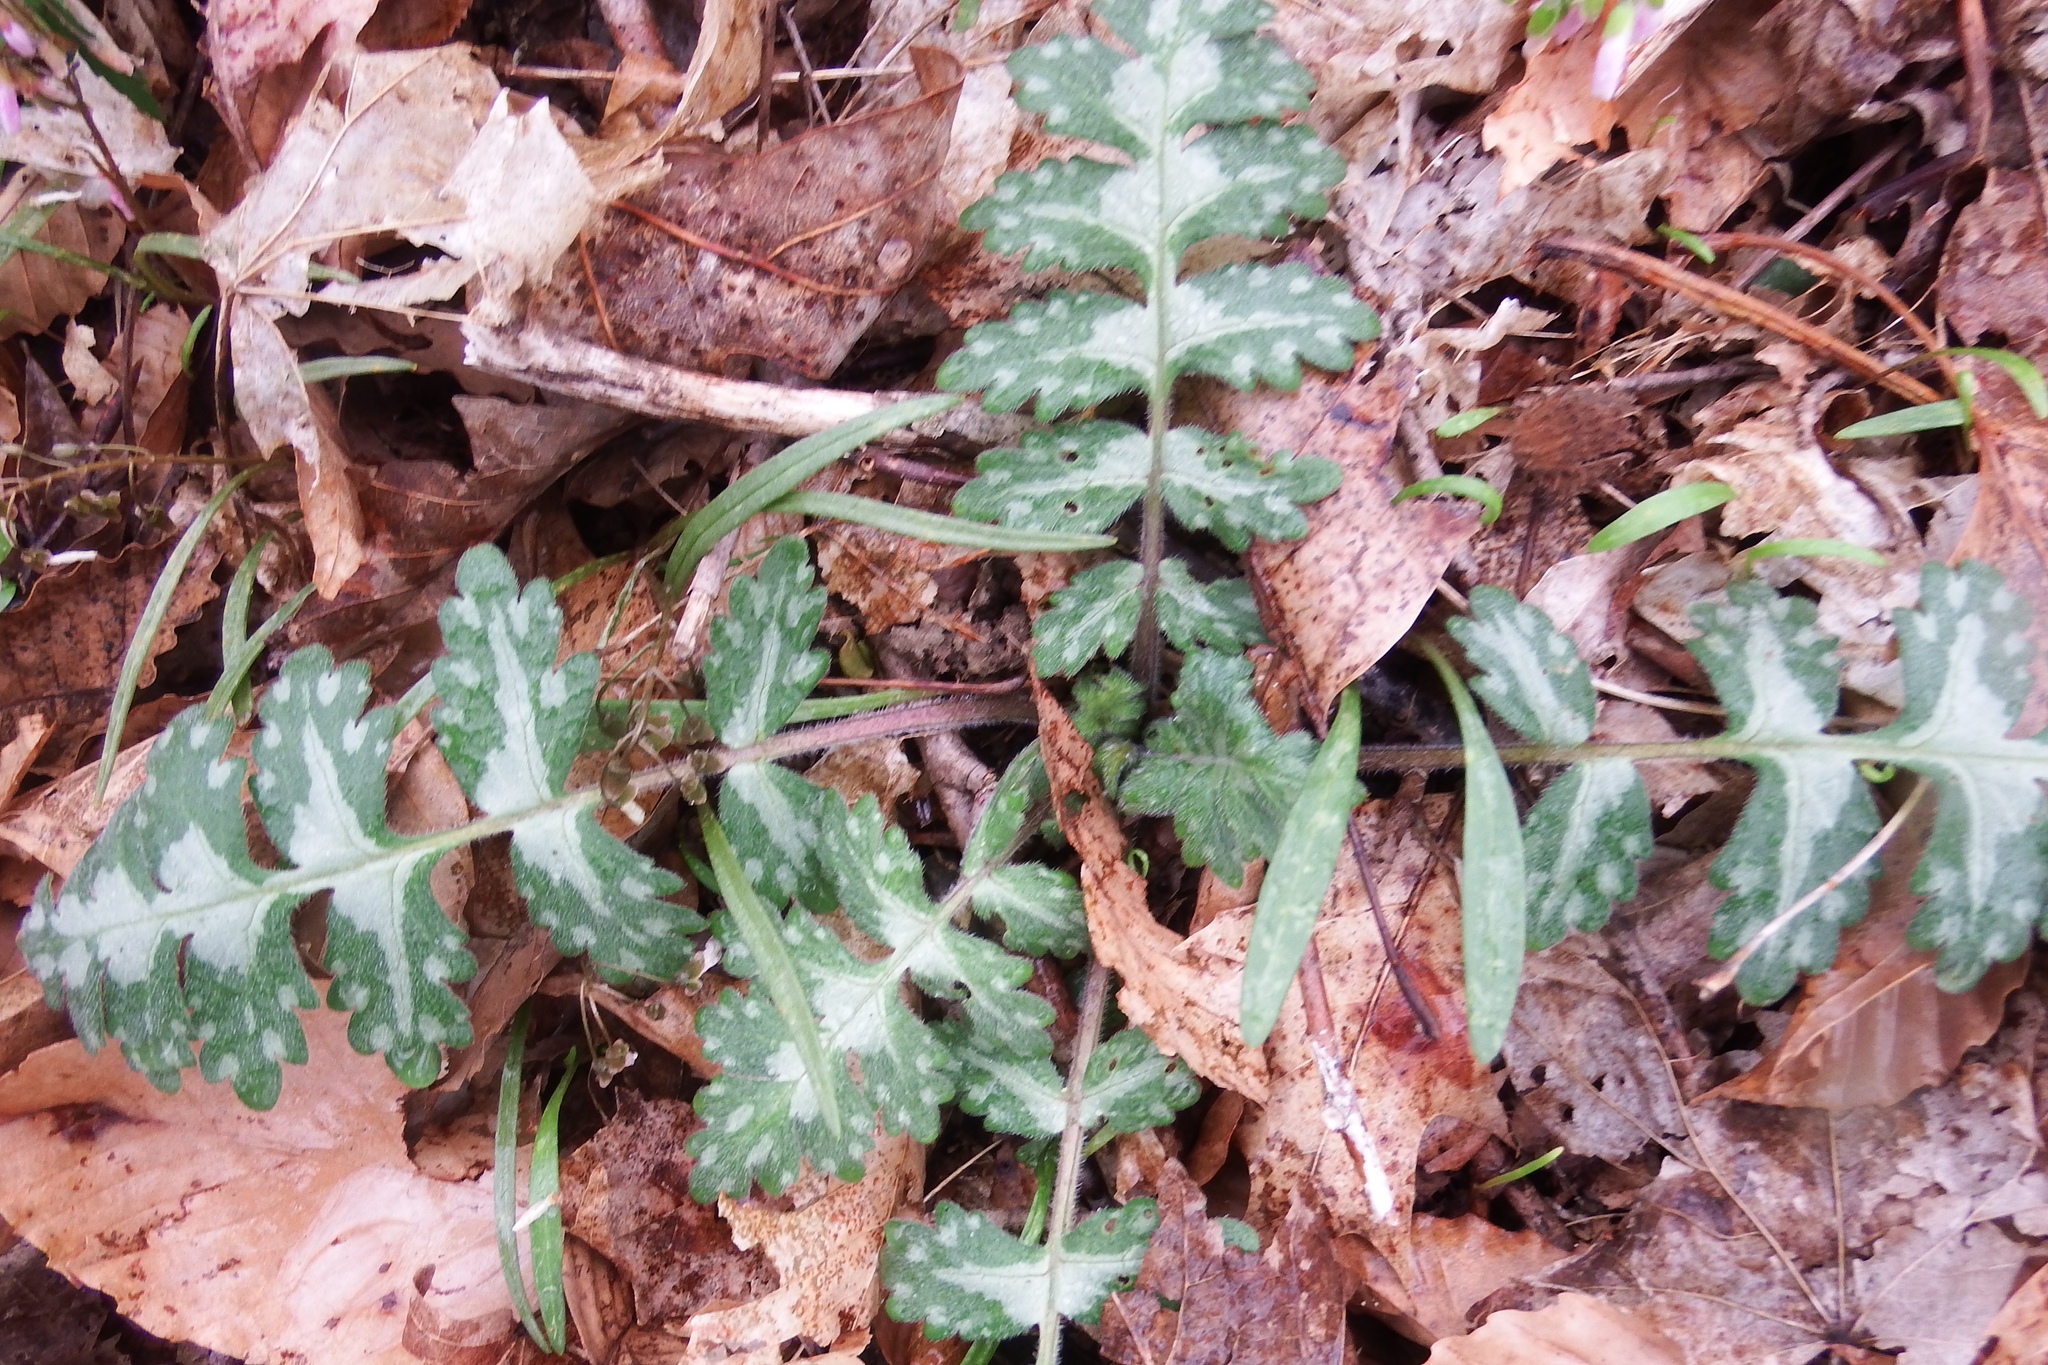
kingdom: Plantae
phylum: Tracheophyta
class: Magnoliopsida
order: Boraginales
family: Hydrophyllaceae
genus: Hydrophyllum
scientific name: Hydrophyllum macrophyllum
